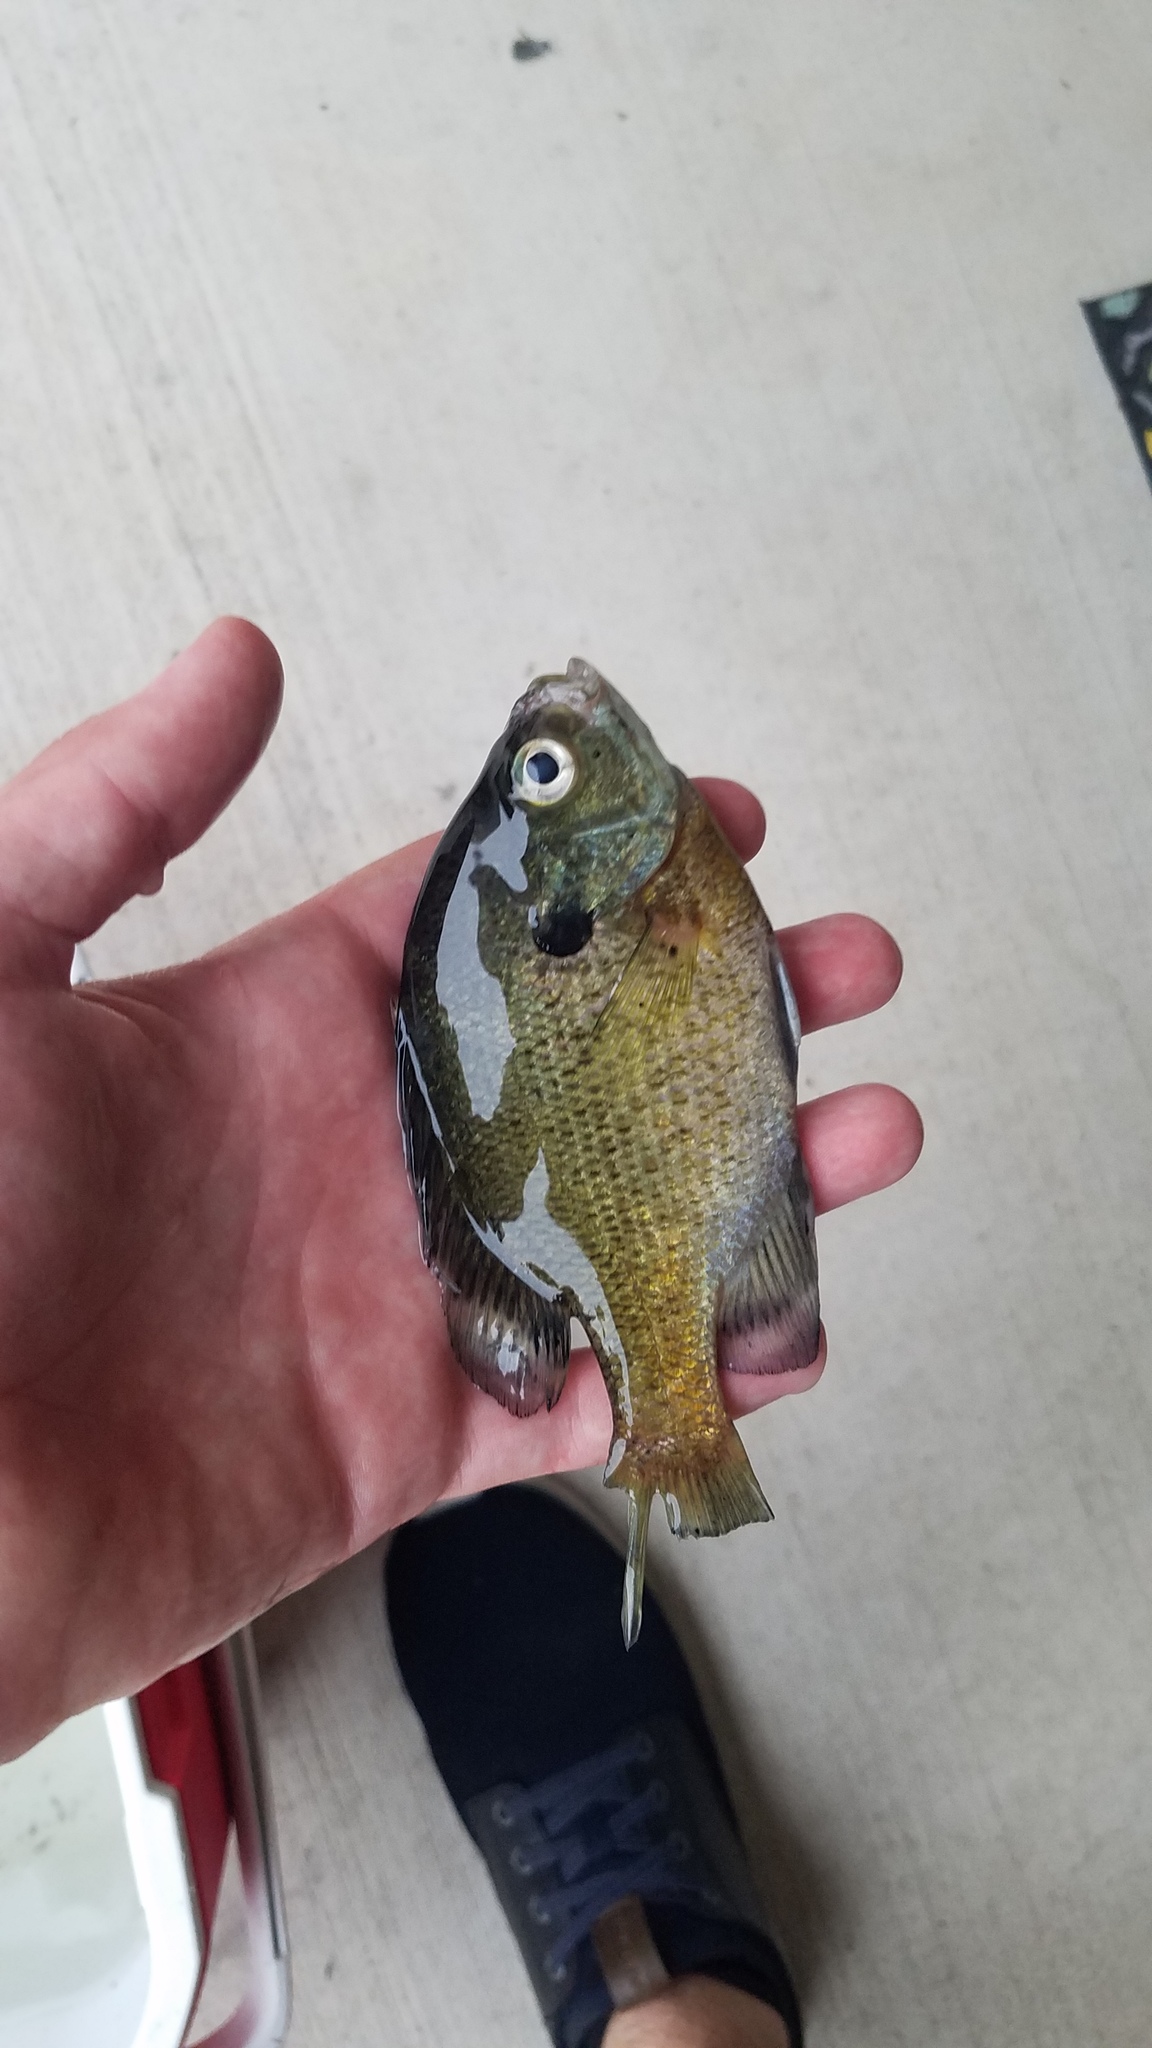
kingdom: Animalia
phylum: Chordata
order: Perciformes
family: Centrarchidae
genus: Lepomis
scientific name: Lepomis macrochirus
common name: Bluegill
